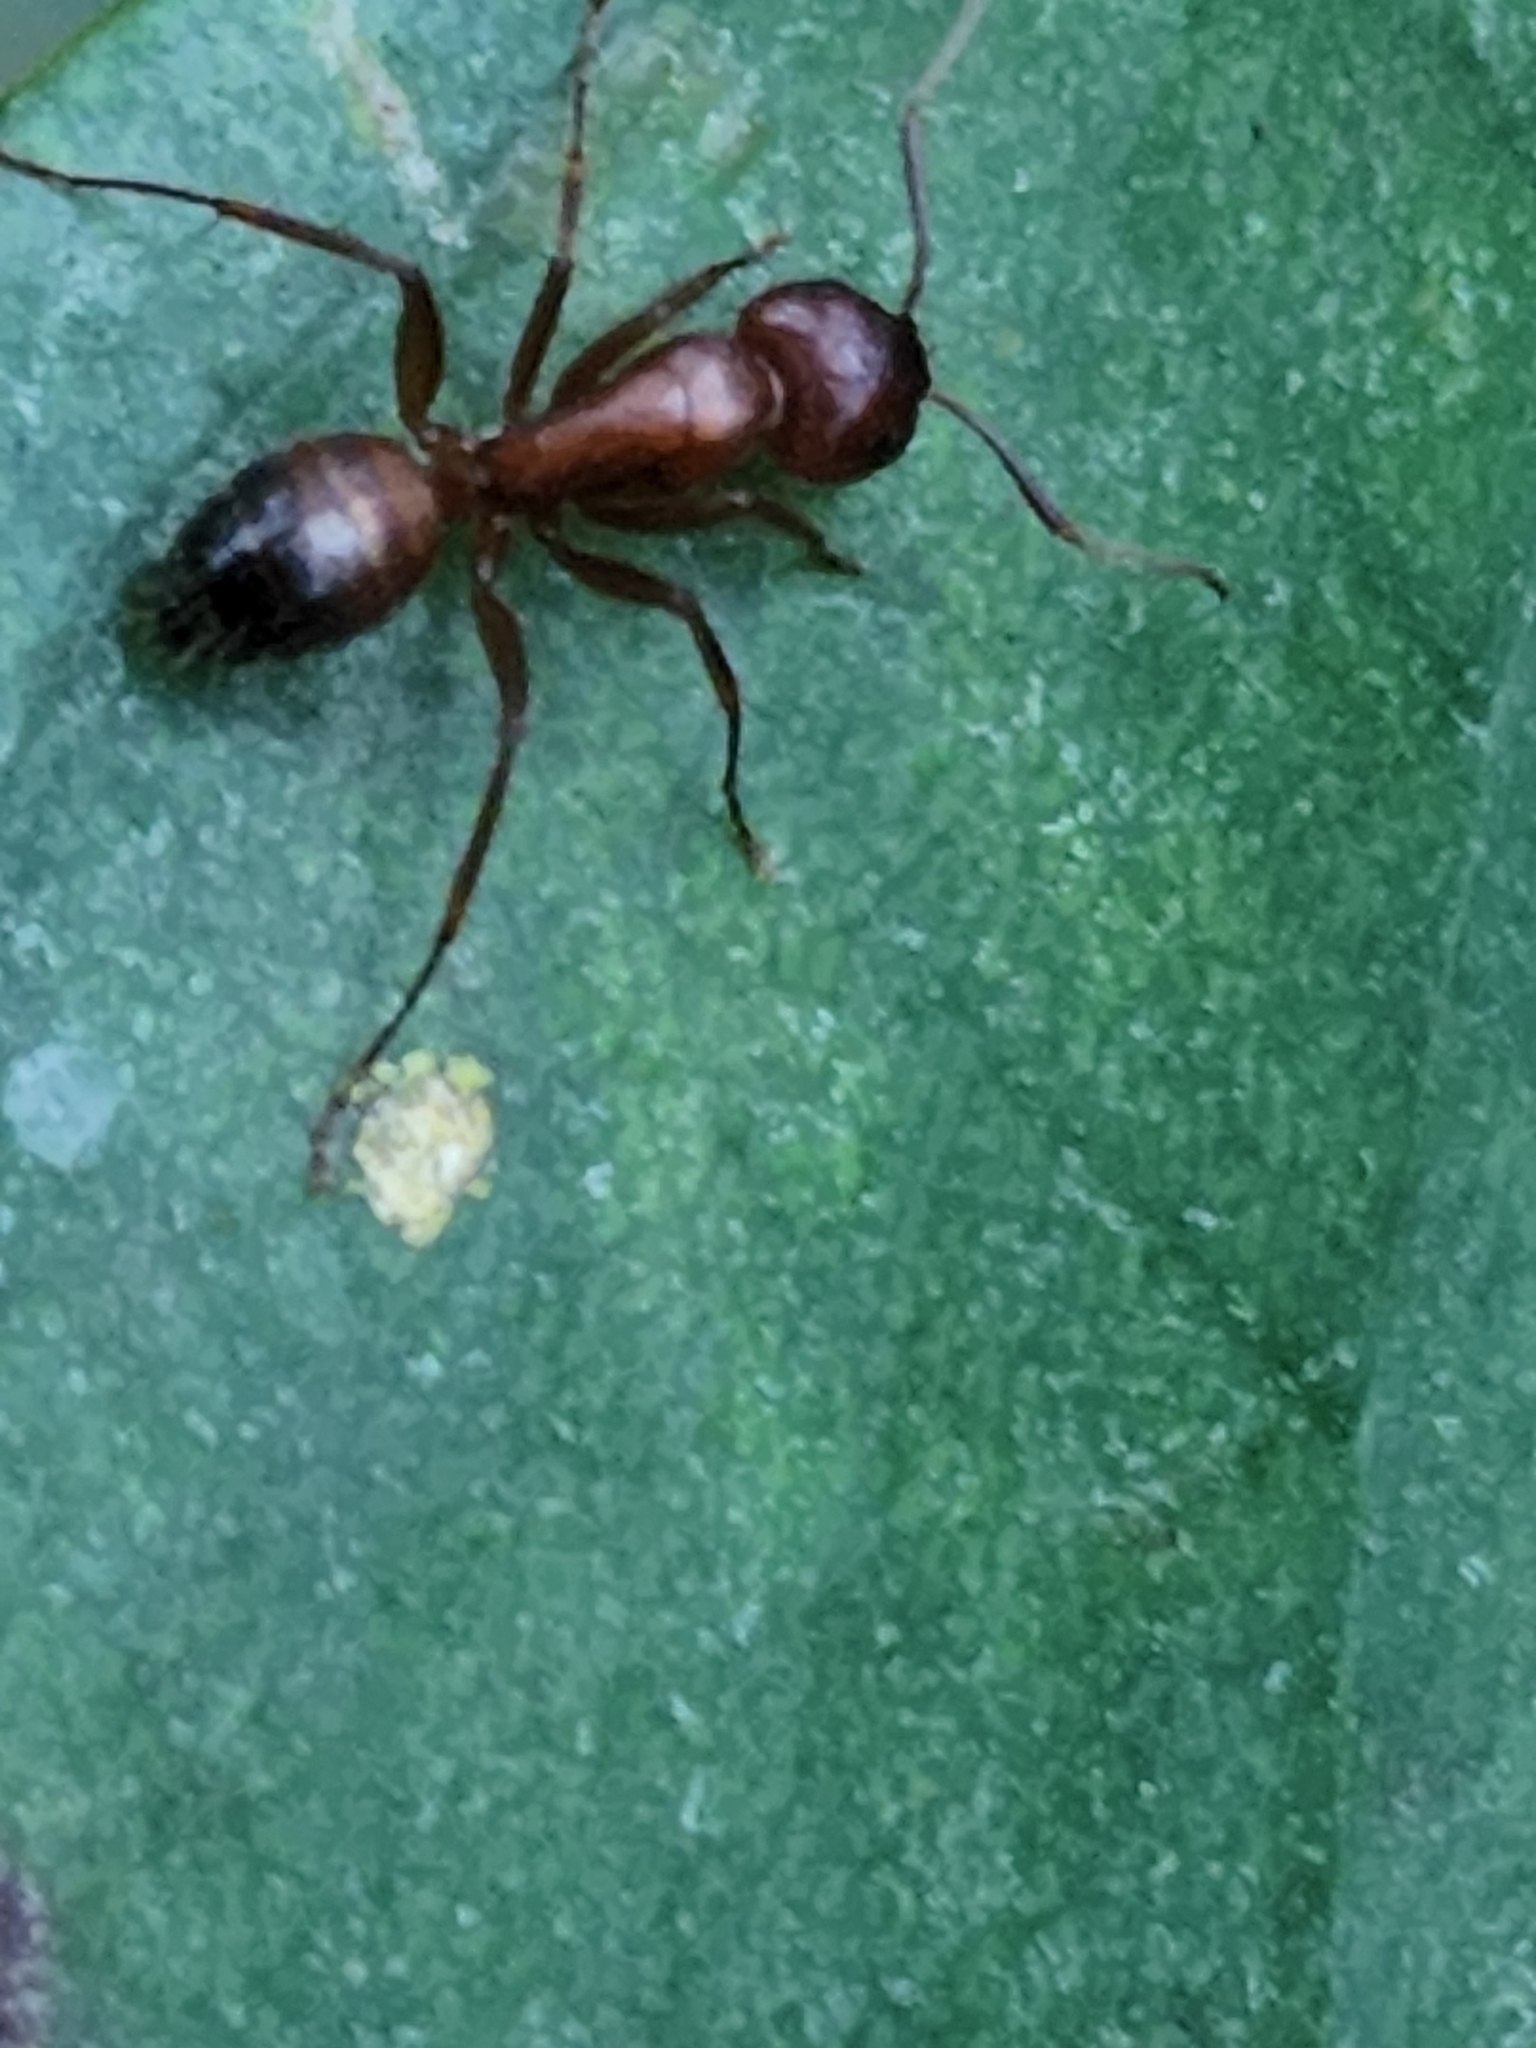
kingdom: Animalia
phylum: Arthropoda
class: Insecta
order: Hymenoptera
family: Formicidae
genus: Camponotus
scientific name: Camponotus snellingi
